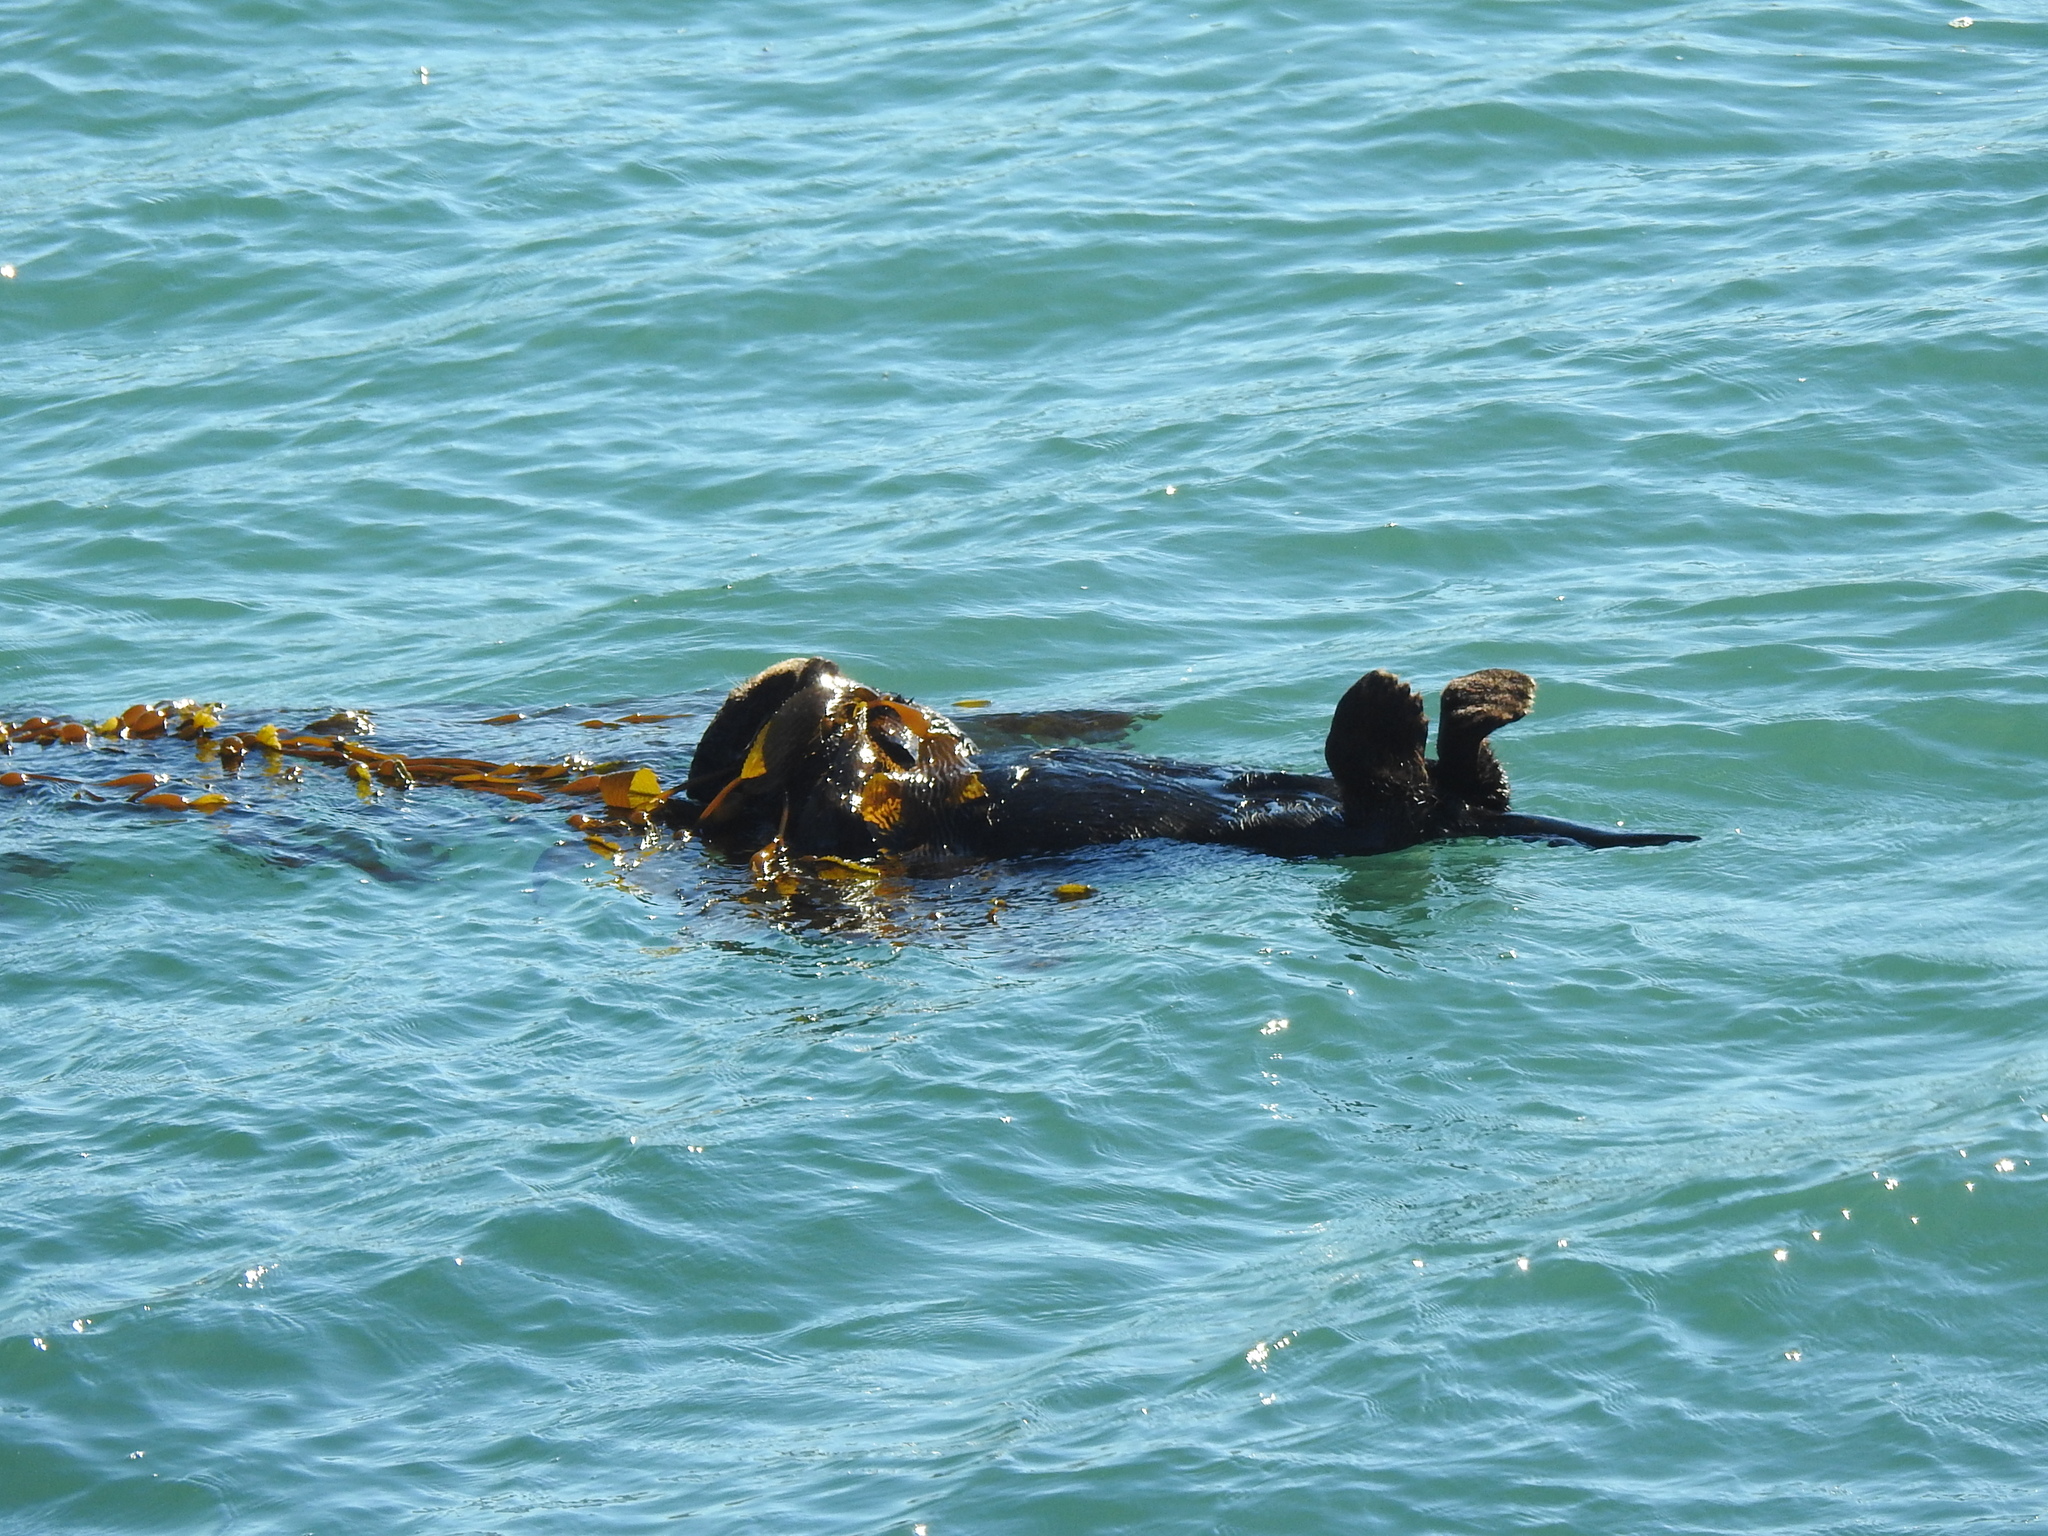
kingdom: Animalia
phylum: Chordata
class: Mammalia
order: Carnivora
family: Mustelidae
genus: Enhydra
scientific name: Enhydra lutris
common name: Sea otter
